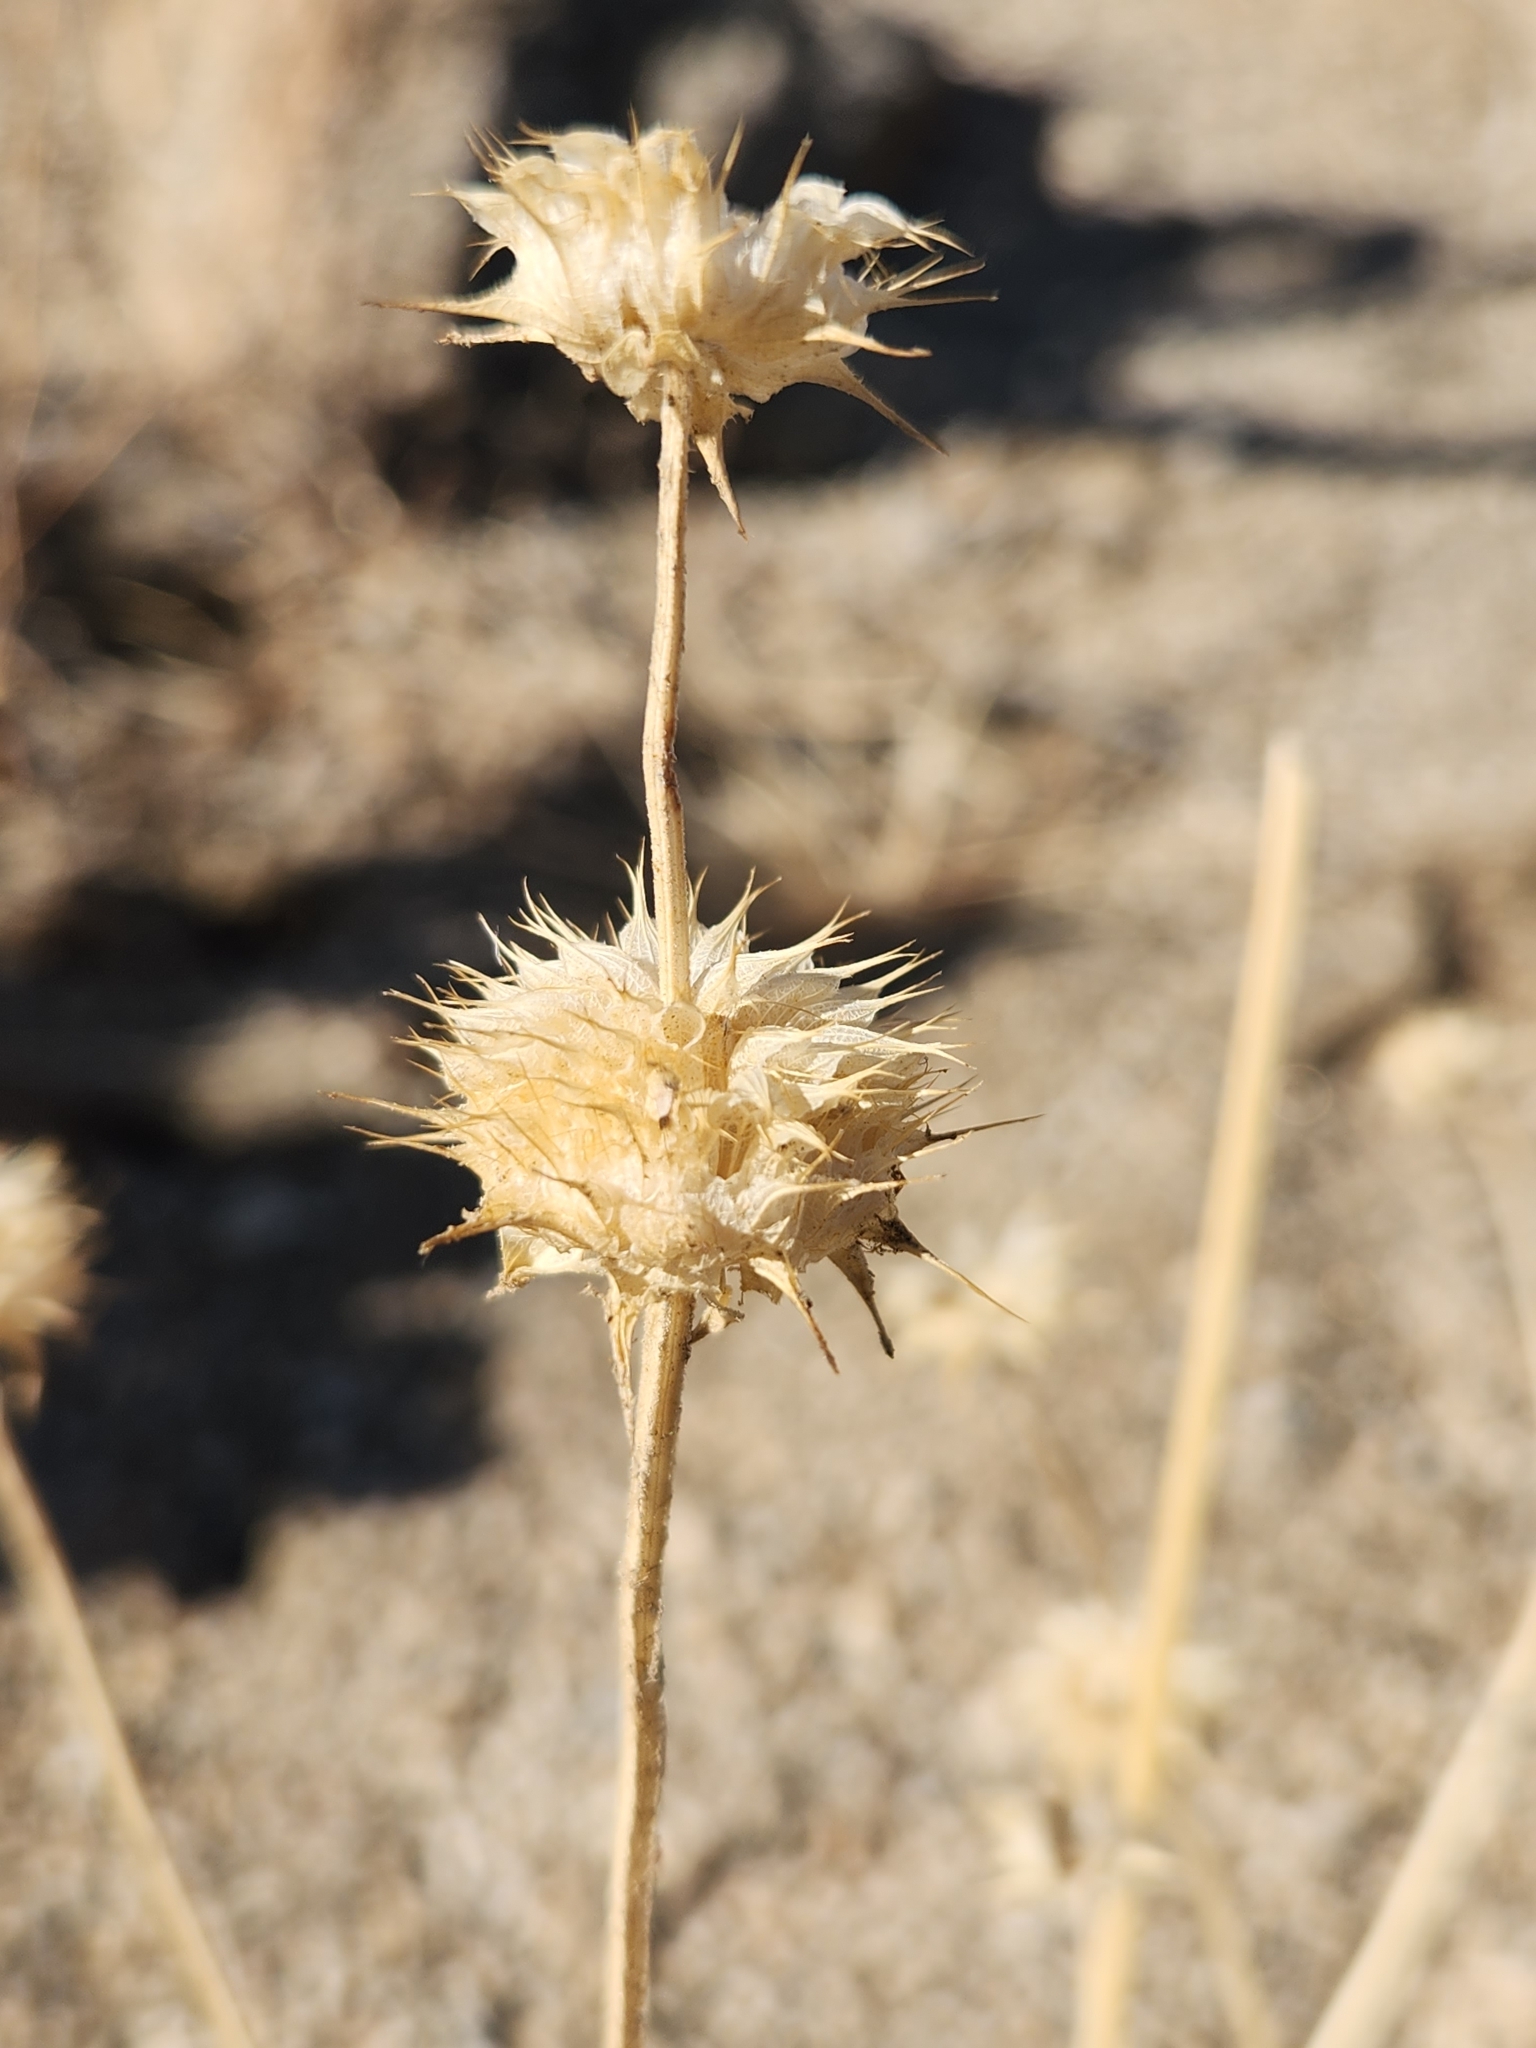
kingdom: Plantae
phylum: Tracheophyta
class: Magnoliopsida
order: Lamiales
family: Lamiaceae
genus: Salvia
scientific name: Salvia columbariae
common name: Chia
